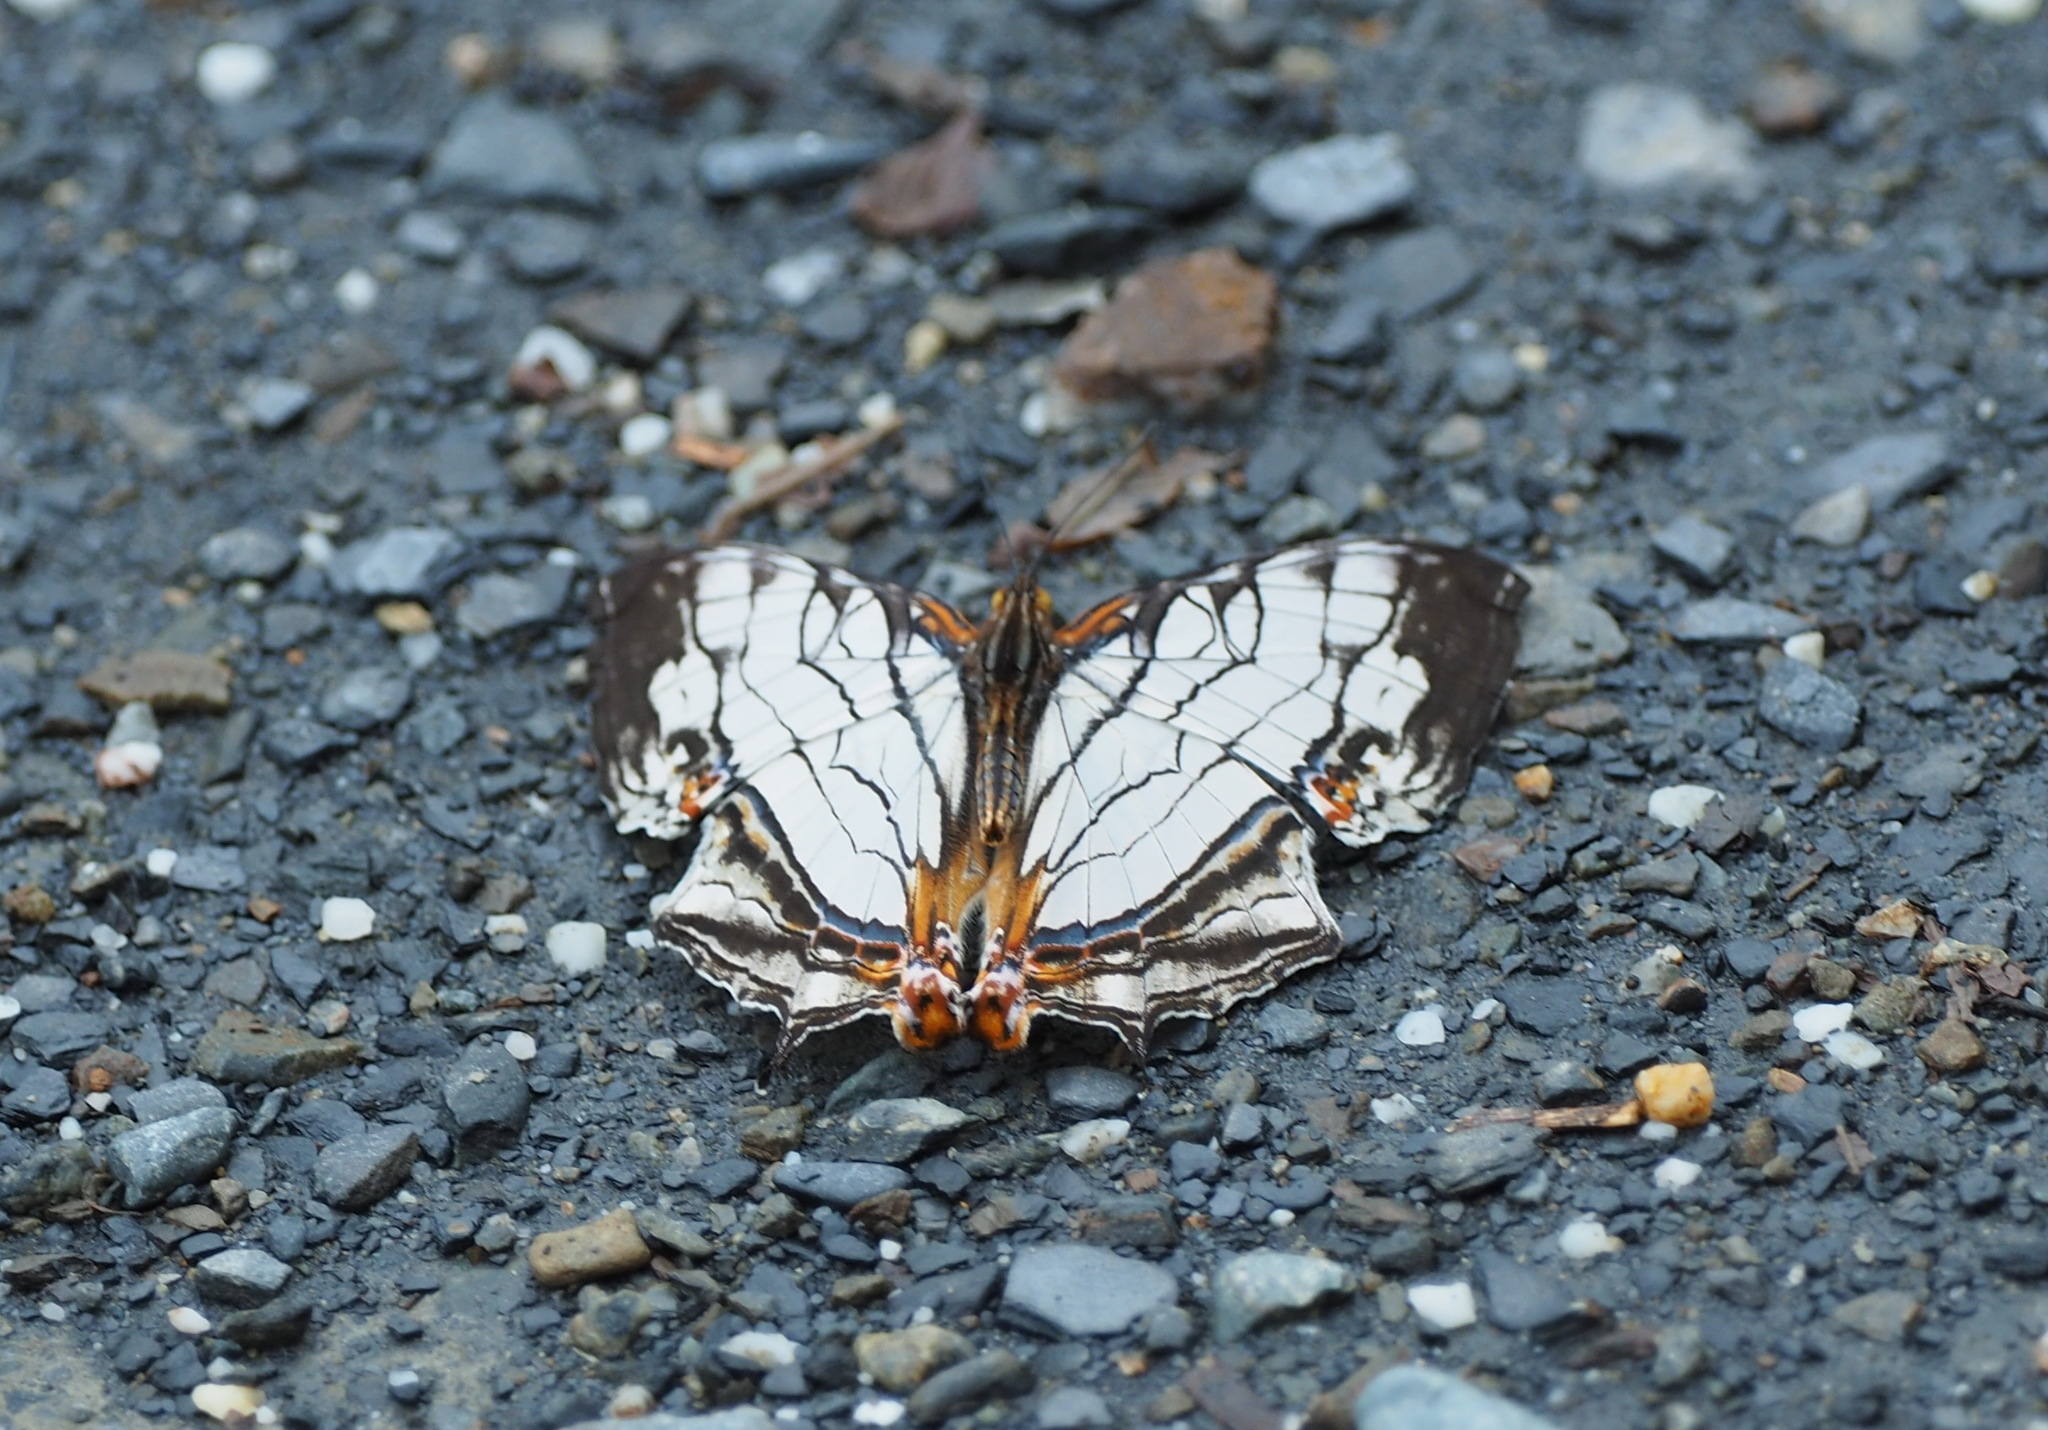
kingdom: Animalia
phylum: Arthropoda
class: Insecta
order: Lepidoptera
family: Nymphalidae
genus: Cyrestis
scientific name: Cyrestis thyodamas
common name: Common mapwing
